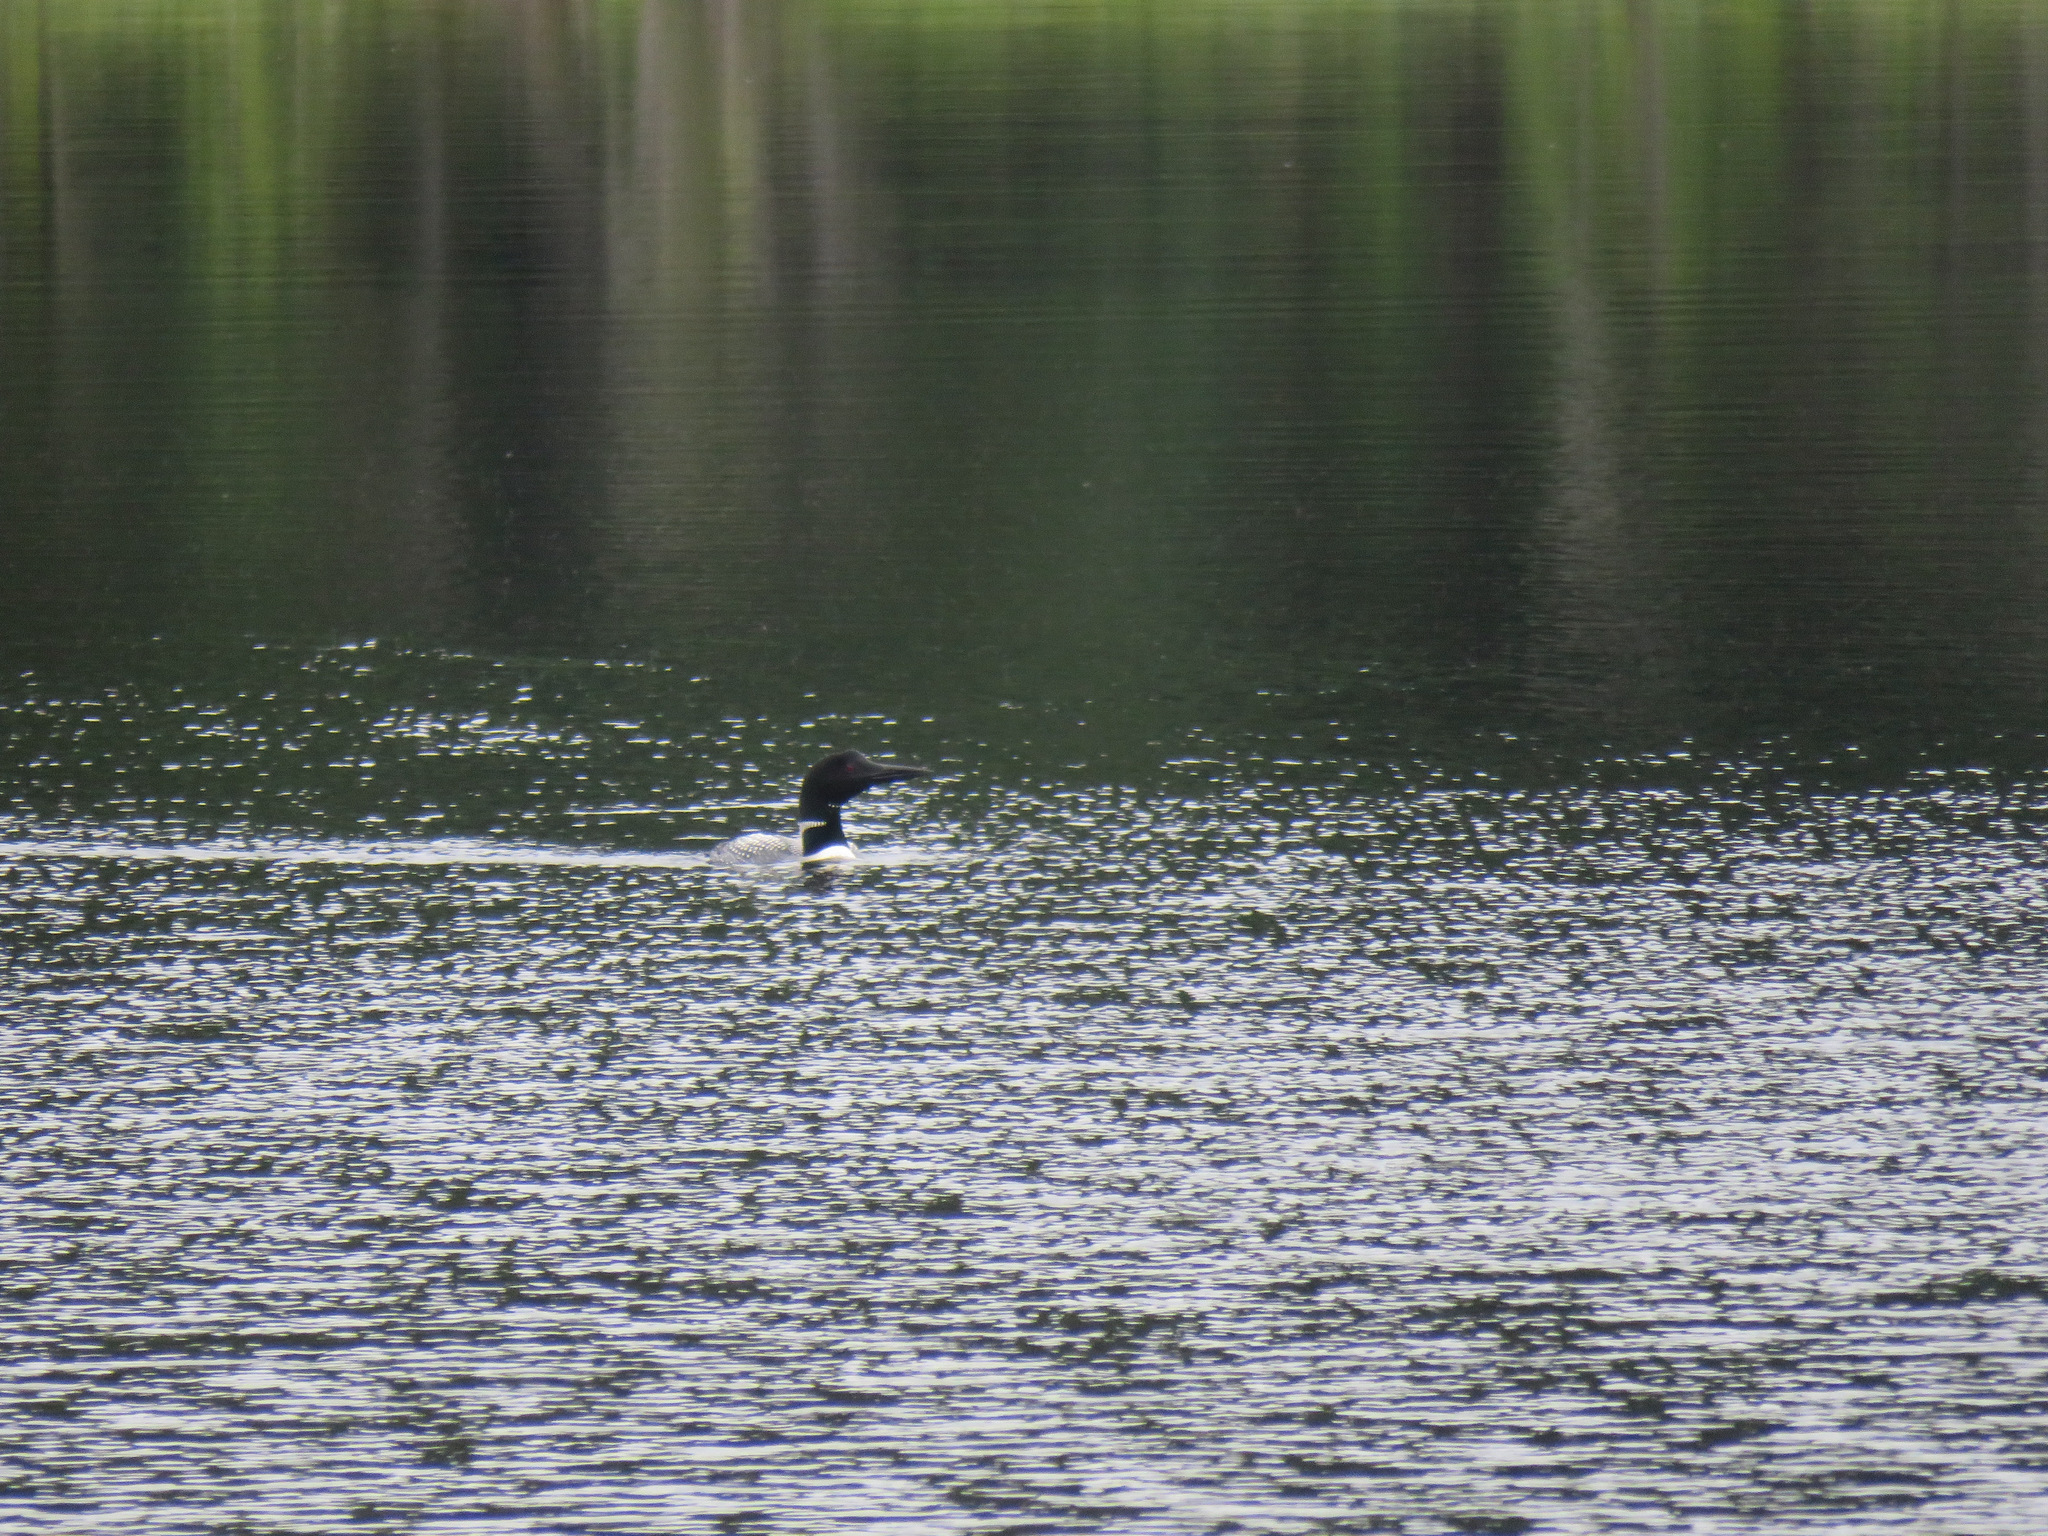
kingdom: Animalia
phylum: Chordata
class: Aves
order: Gaviiformes
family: Gaviidae
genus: Gavia
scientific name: Gavia immer
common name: Common loon
